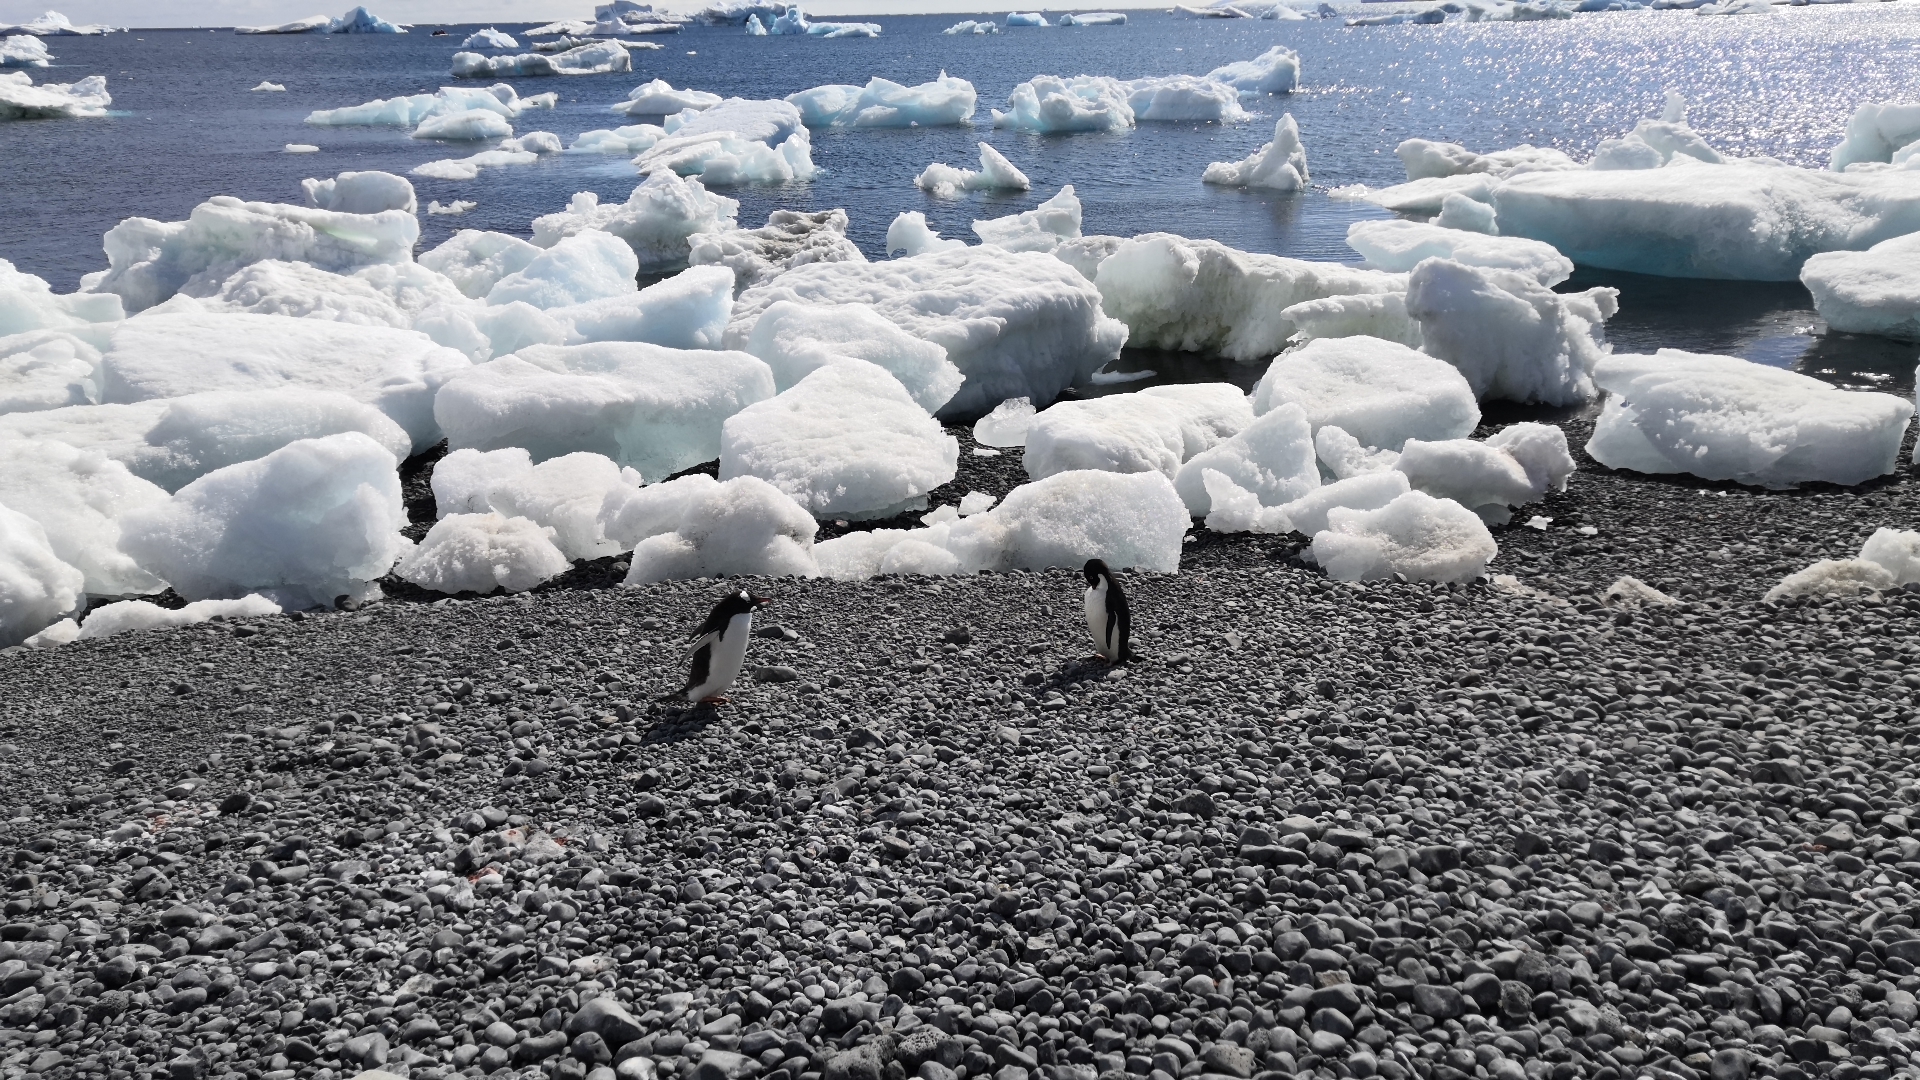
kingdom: Animalia
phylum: Chordata
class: Aves
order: Sphenisciformes
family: Spheniscidae
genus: Pygoscelis
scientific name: Pygoscelis papua
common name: Gentoo penguin
